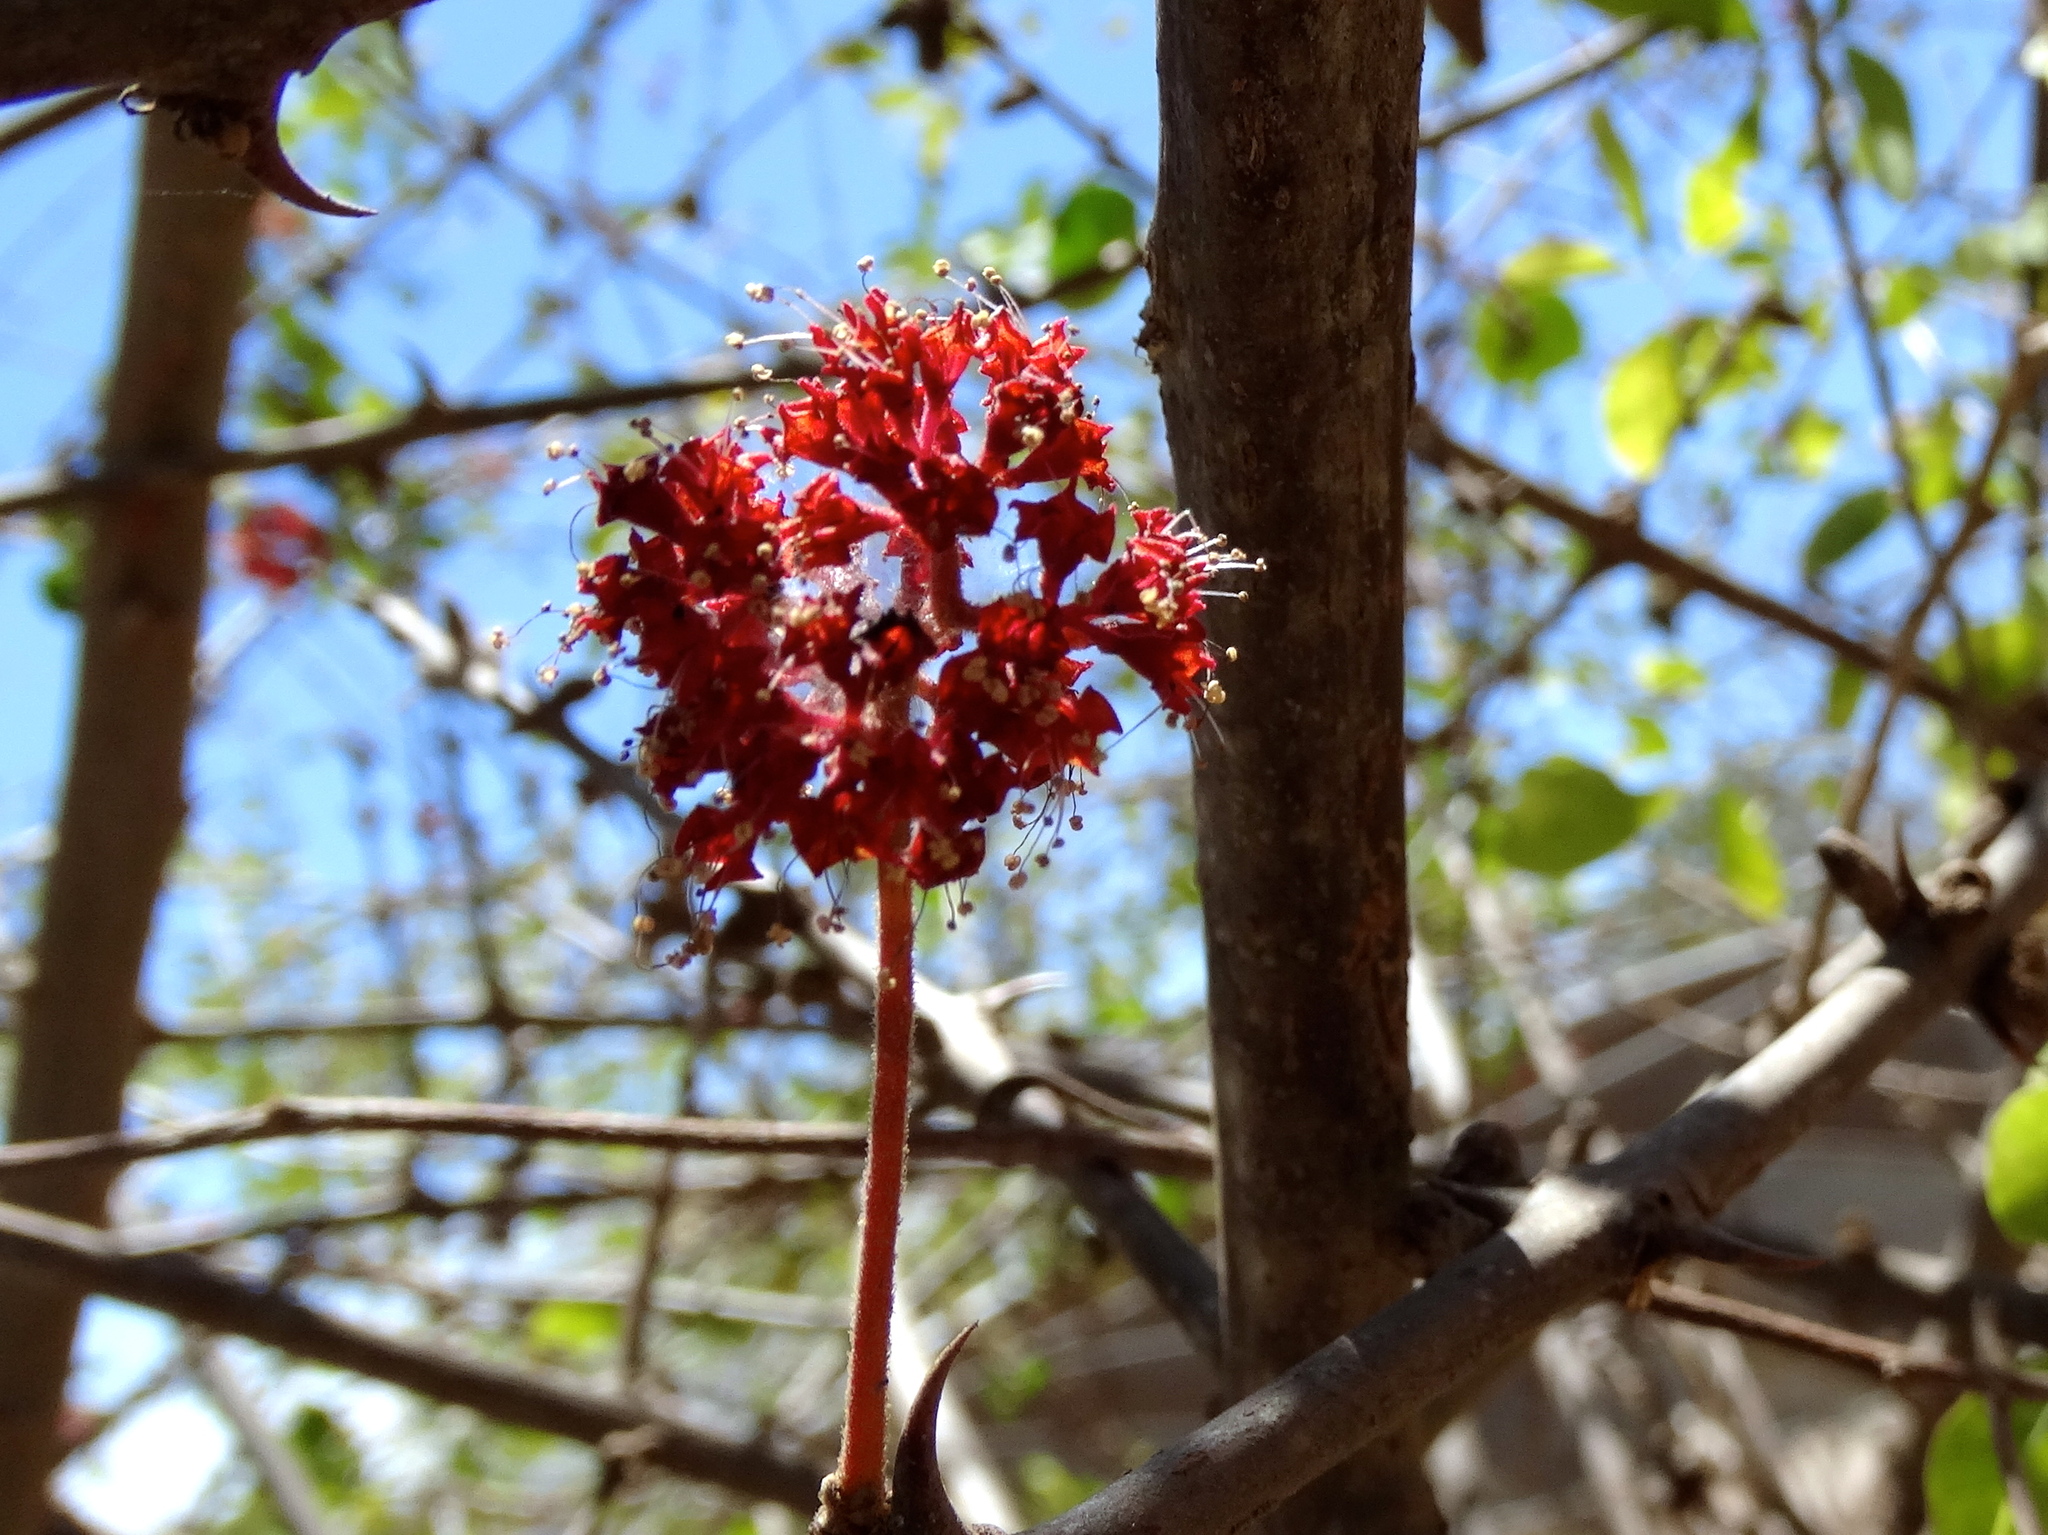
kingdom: Plantae
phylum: Tracheophyta
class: Magnoliopsida
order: Caryophyllales
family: Nyctaginaceae
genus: Pisonia
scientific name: Pisonia capitata
